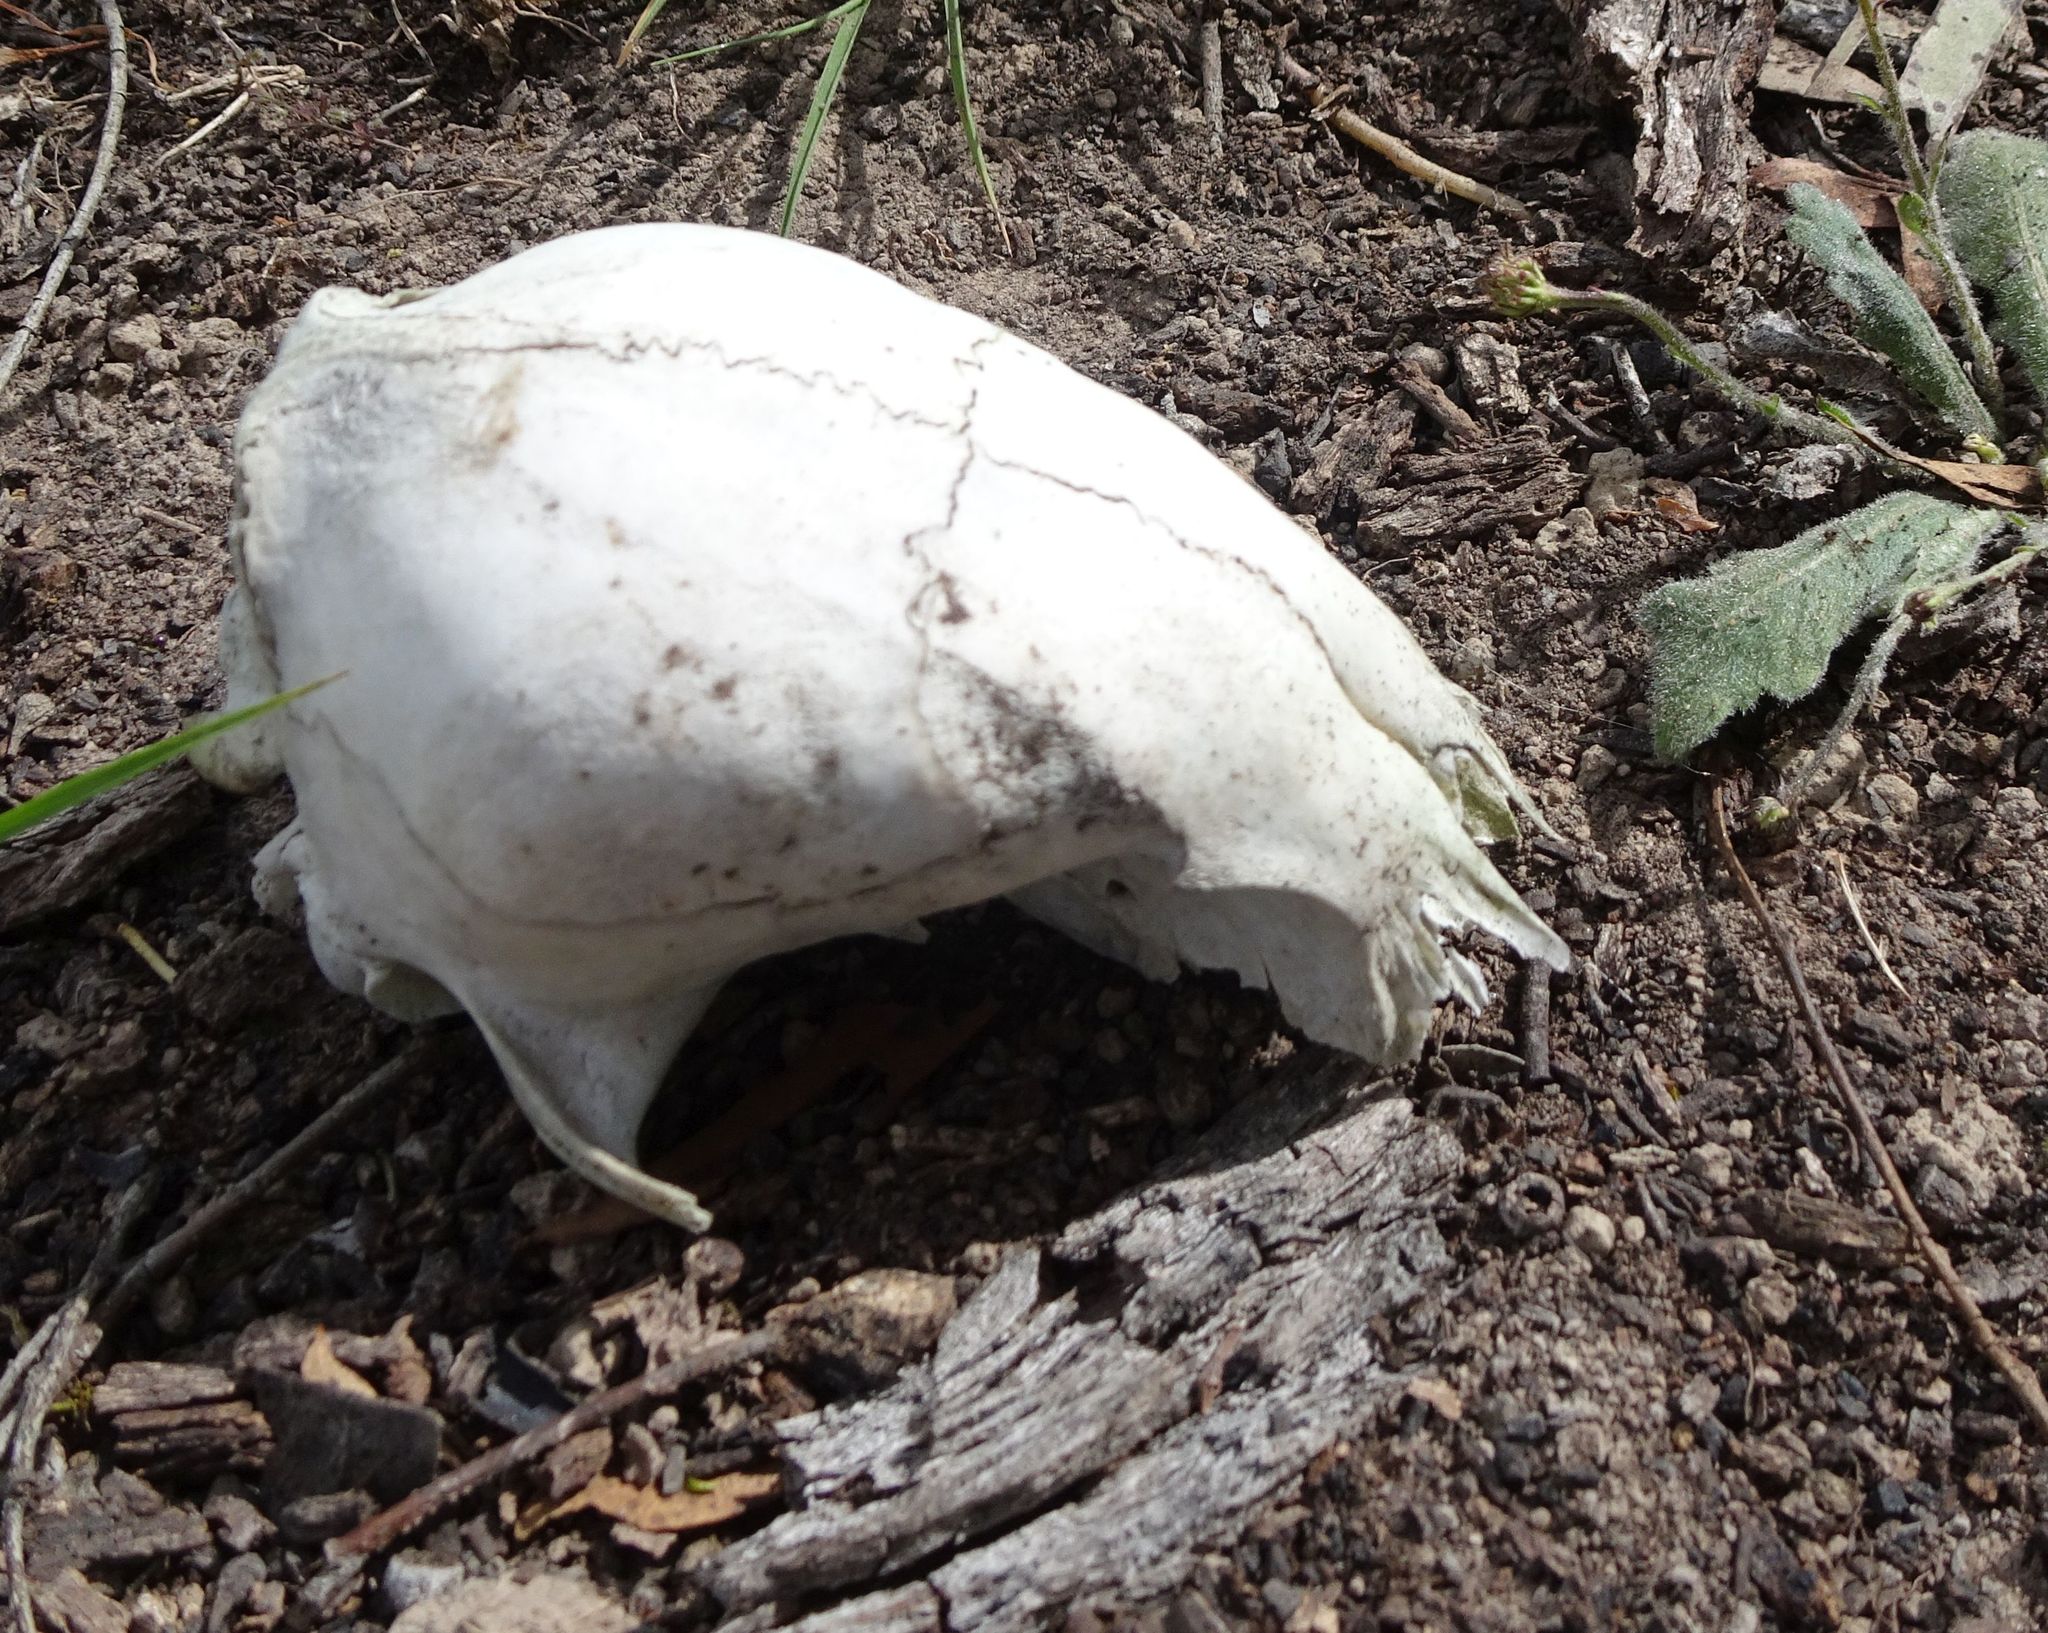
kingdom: Animalia
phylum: Chordata
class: Mammalia
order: Carnivora
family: Canidae
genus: Vulpes
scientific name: Vulpes vulpes
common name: Red fox
